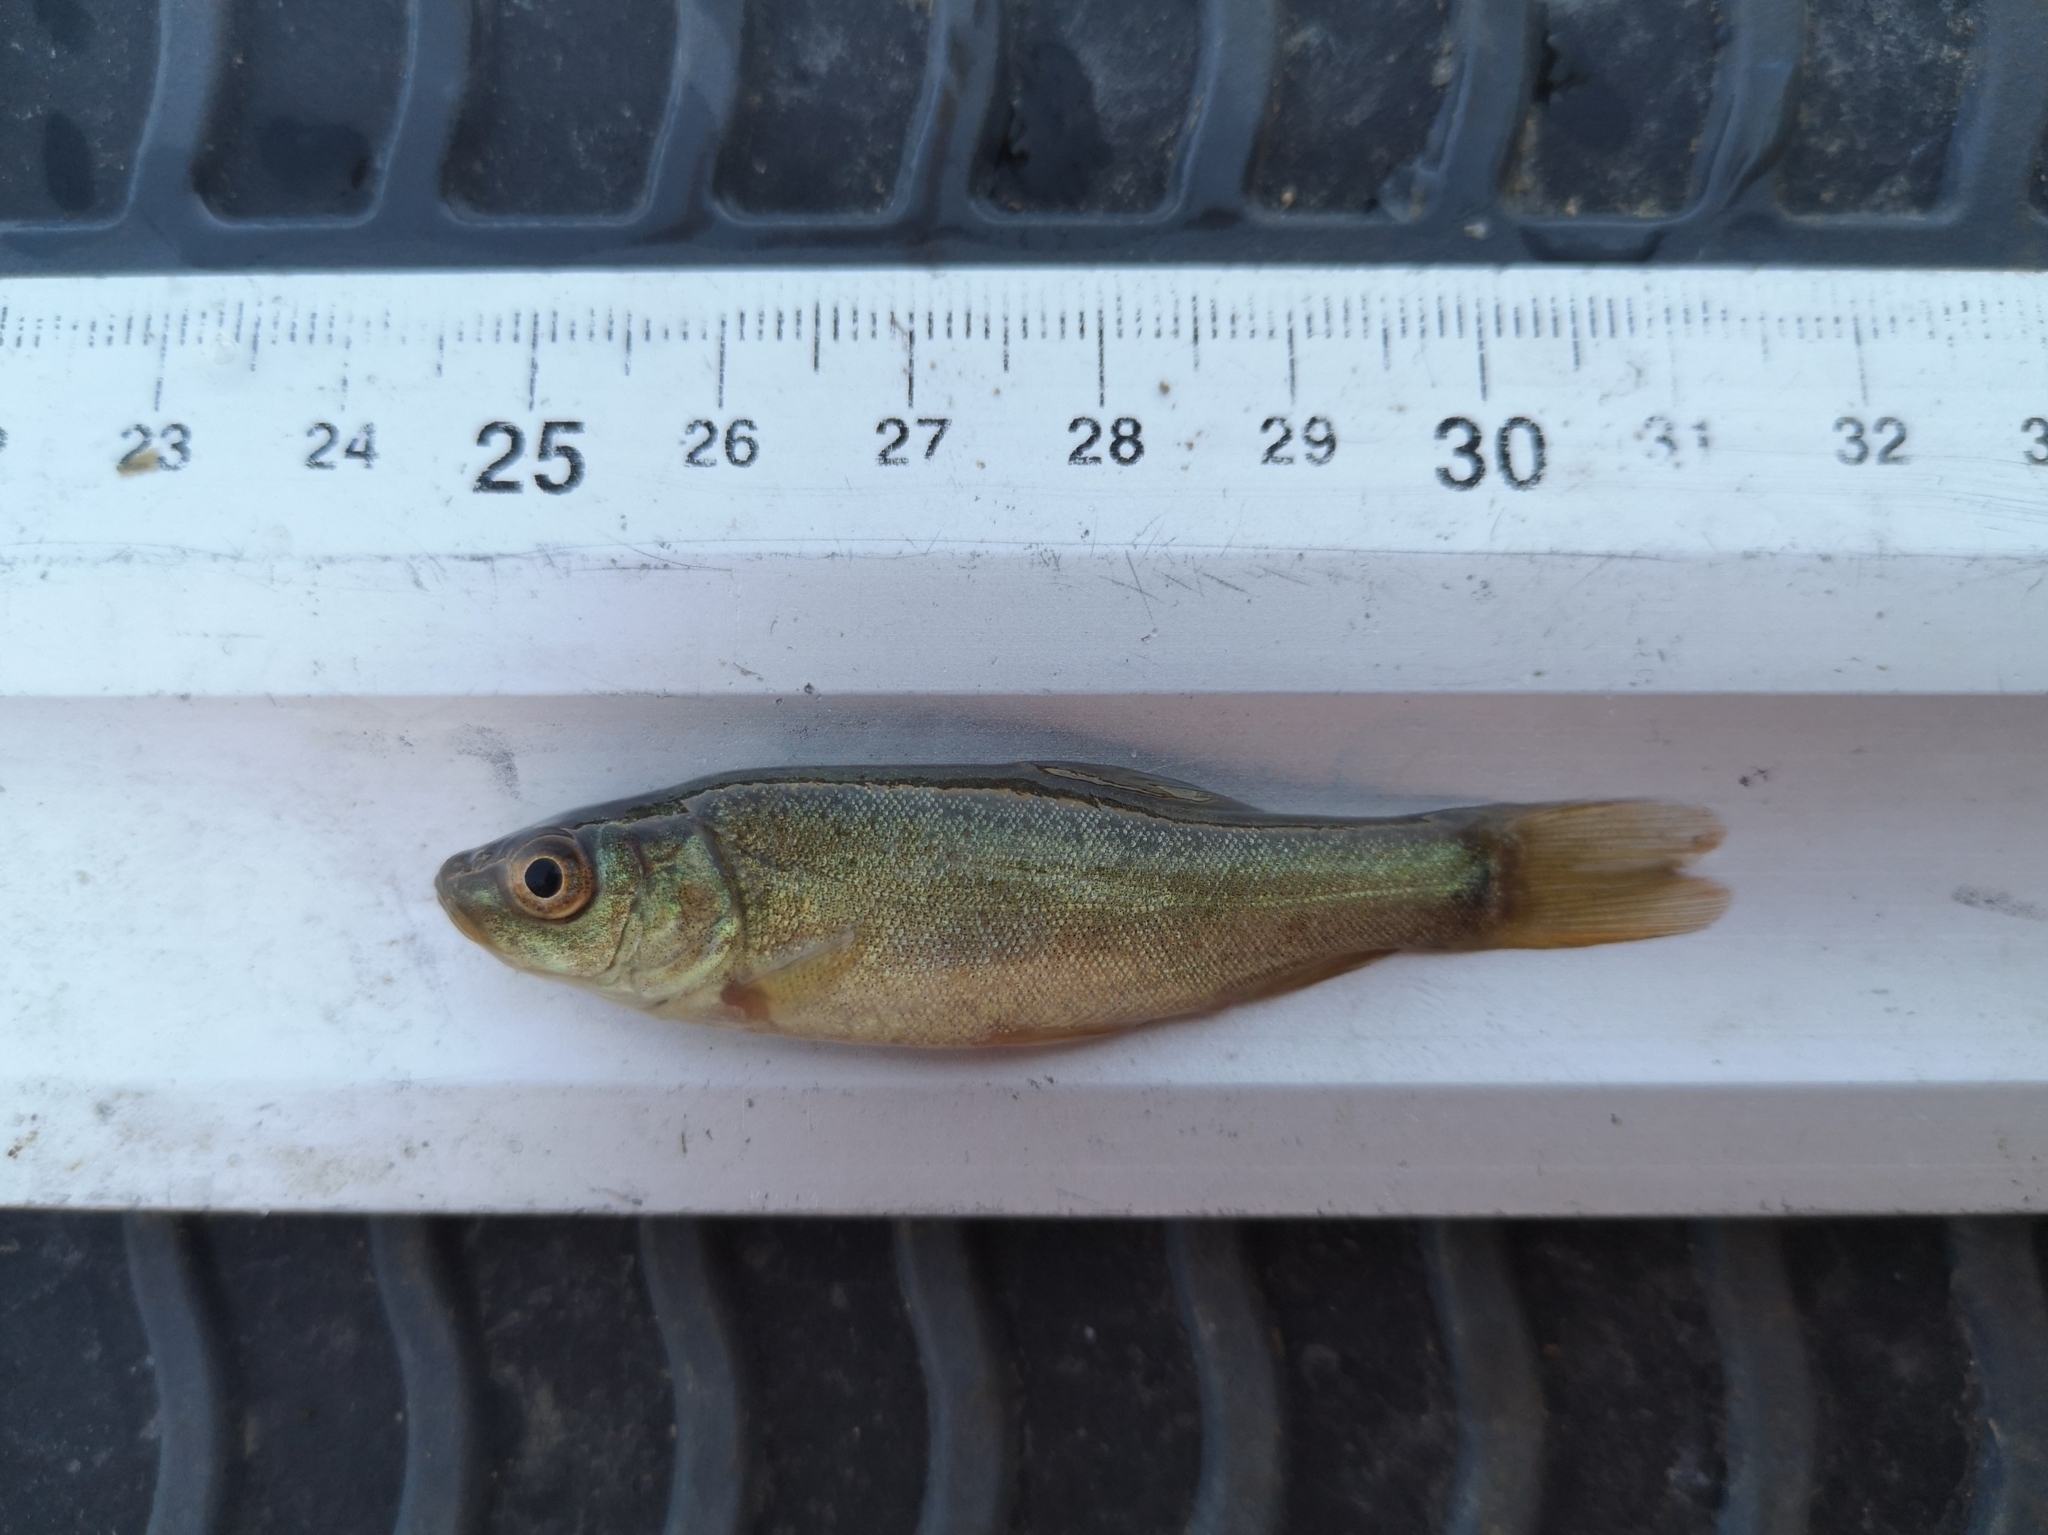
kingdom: Animalia
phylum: Chordata
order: Cypriniformes
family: Cyprinidae
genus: Tinca
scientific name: Tinca tinca
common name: Tench
